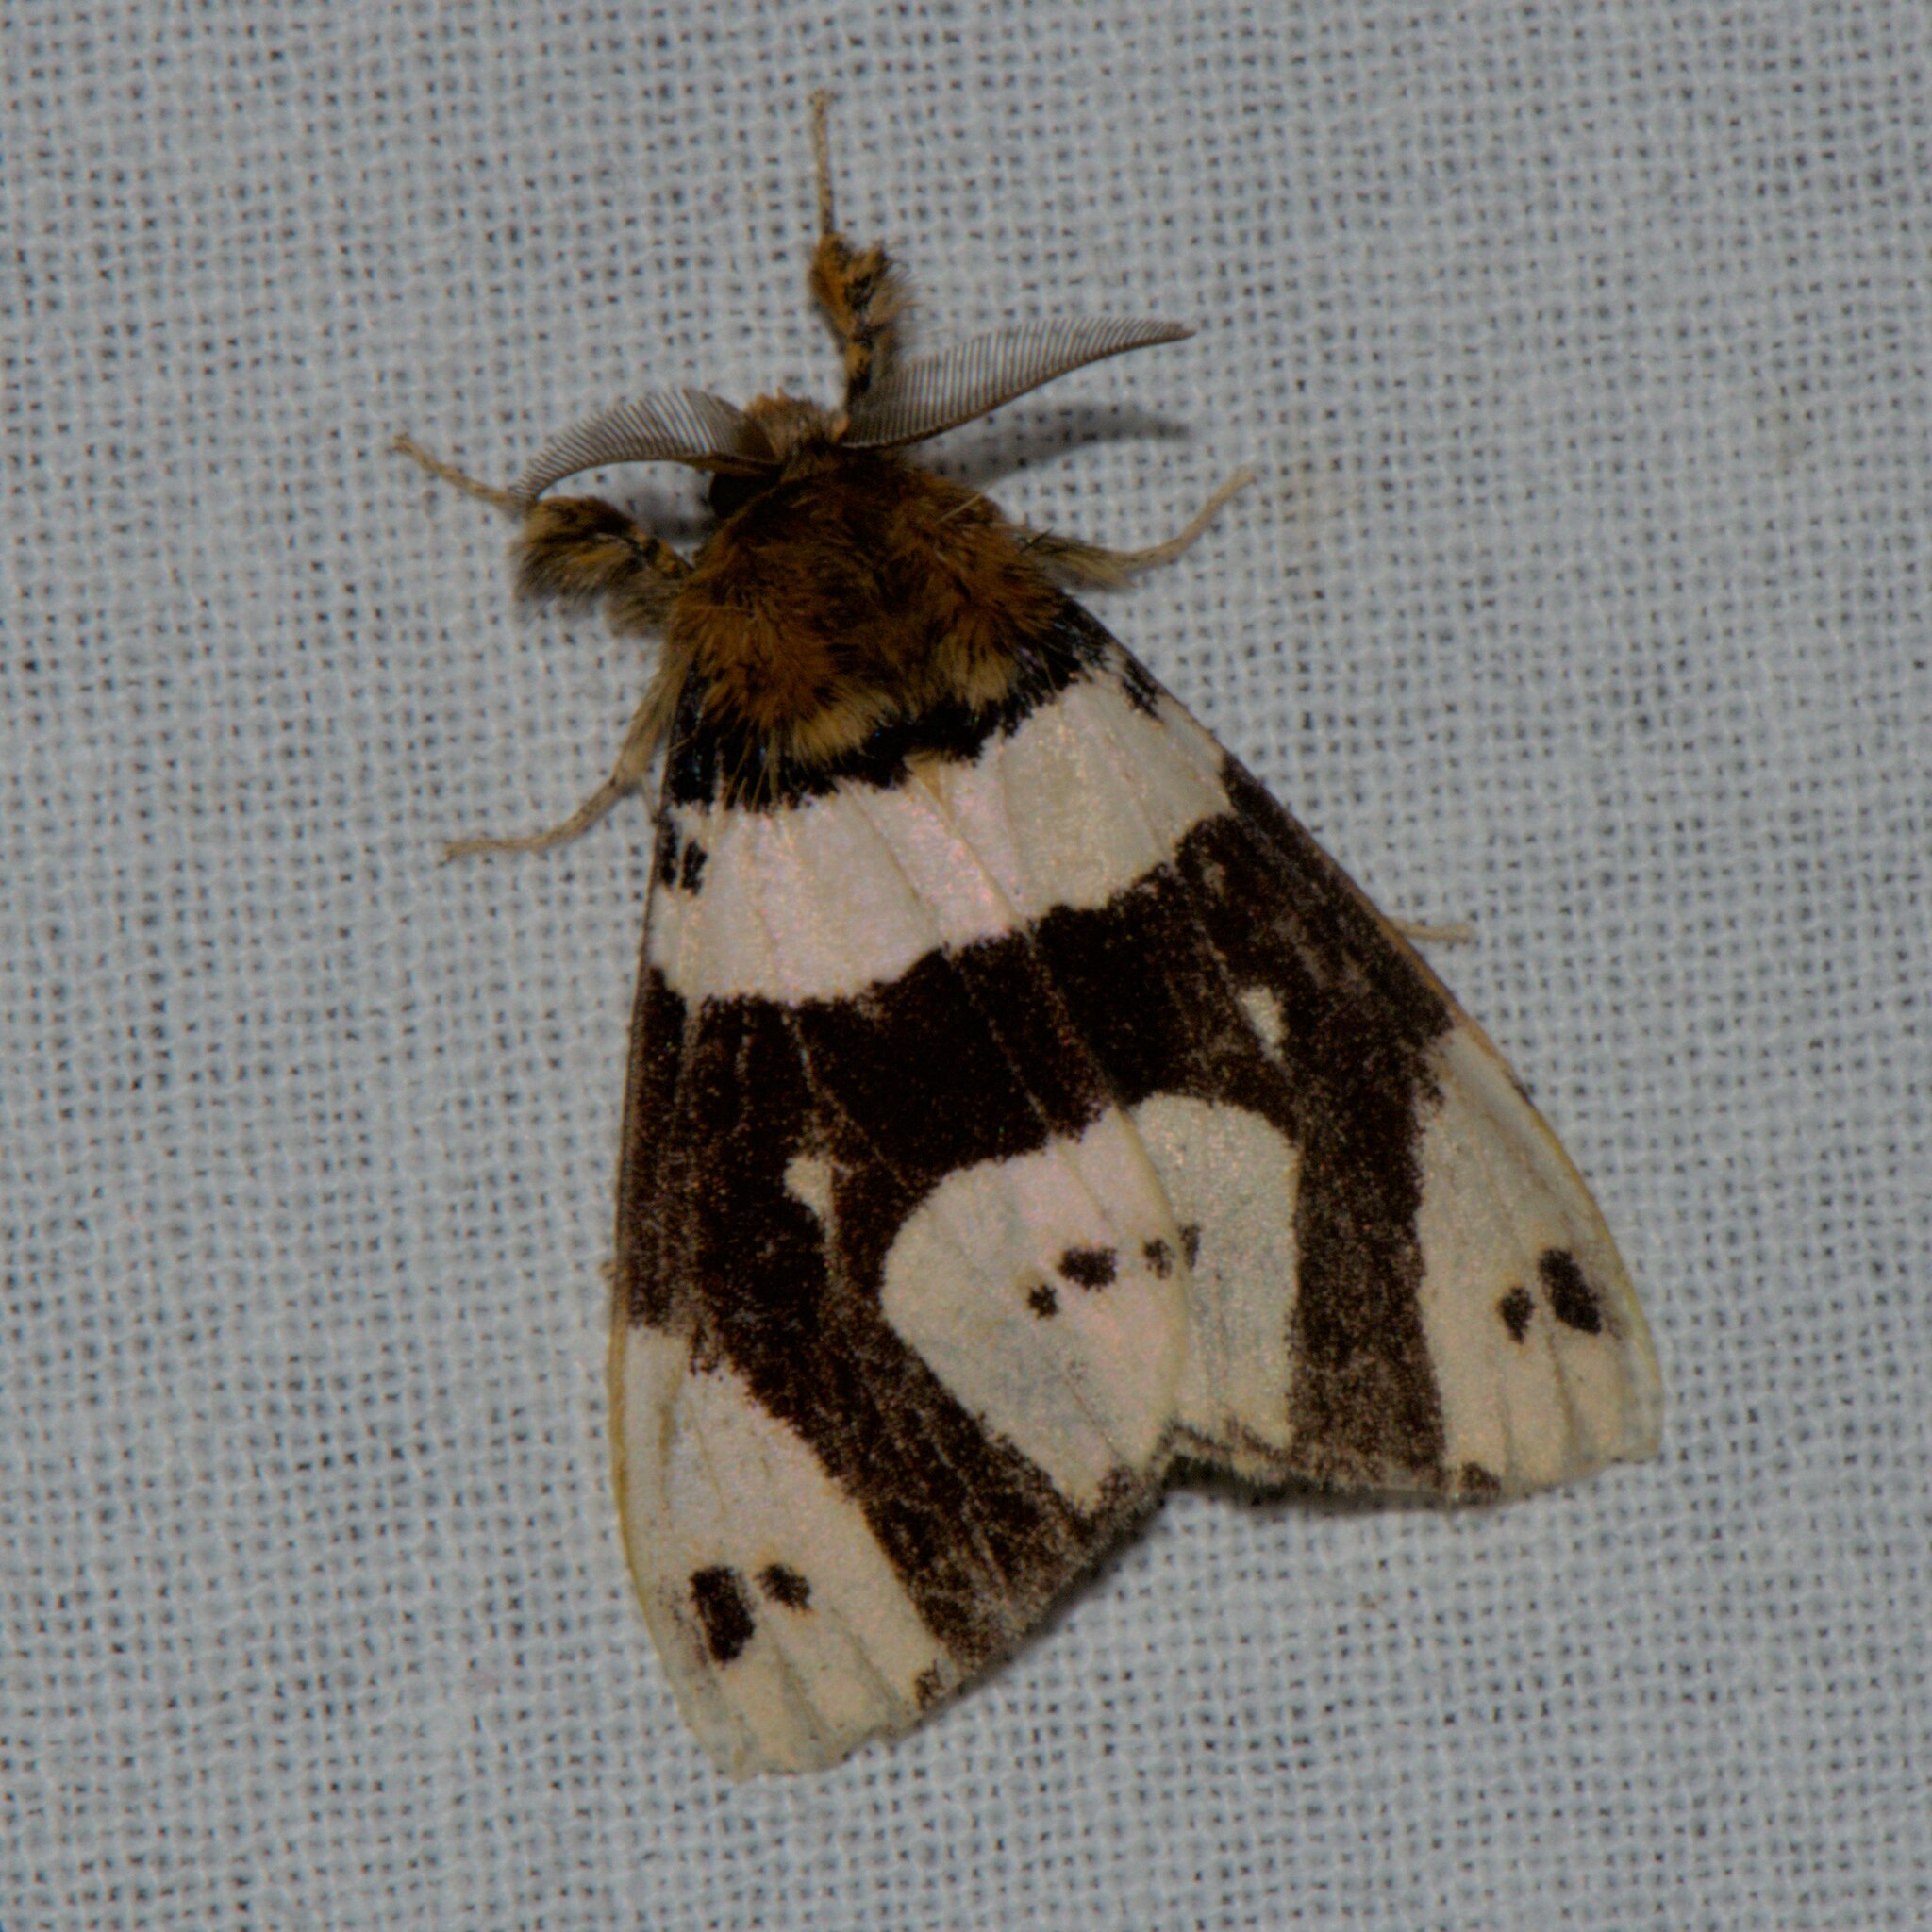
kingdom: Animalia
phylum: Arthropoda
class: Insecta
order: Lepidoptera
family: Erebidae
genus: Pida
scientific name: Pida
